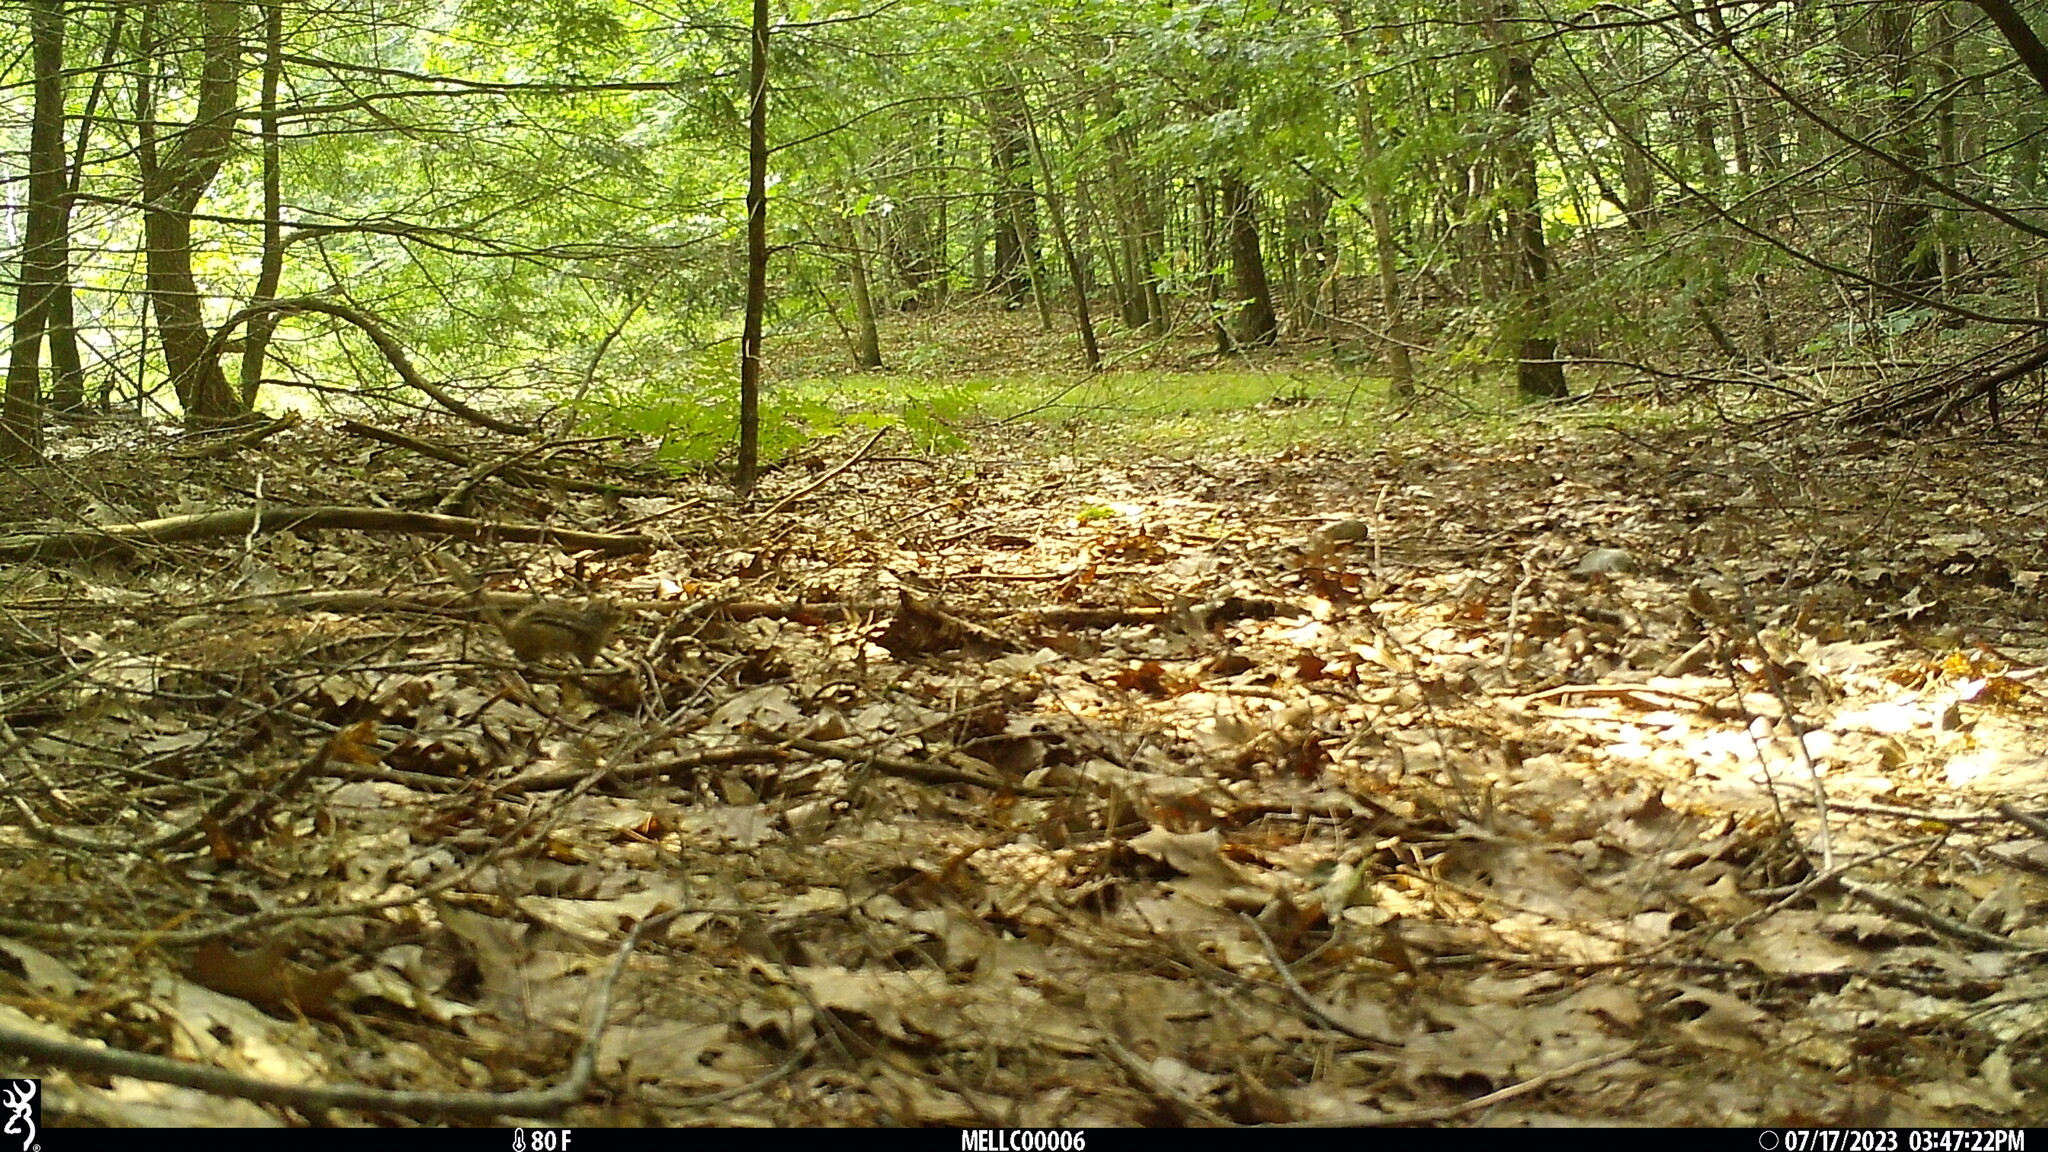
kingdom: Animalia
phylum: Chordata
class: Mammalia
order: Rodentia
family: Sciuridae
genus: Tamias
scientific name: Tamias striatus
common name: Eastern chipmunk
